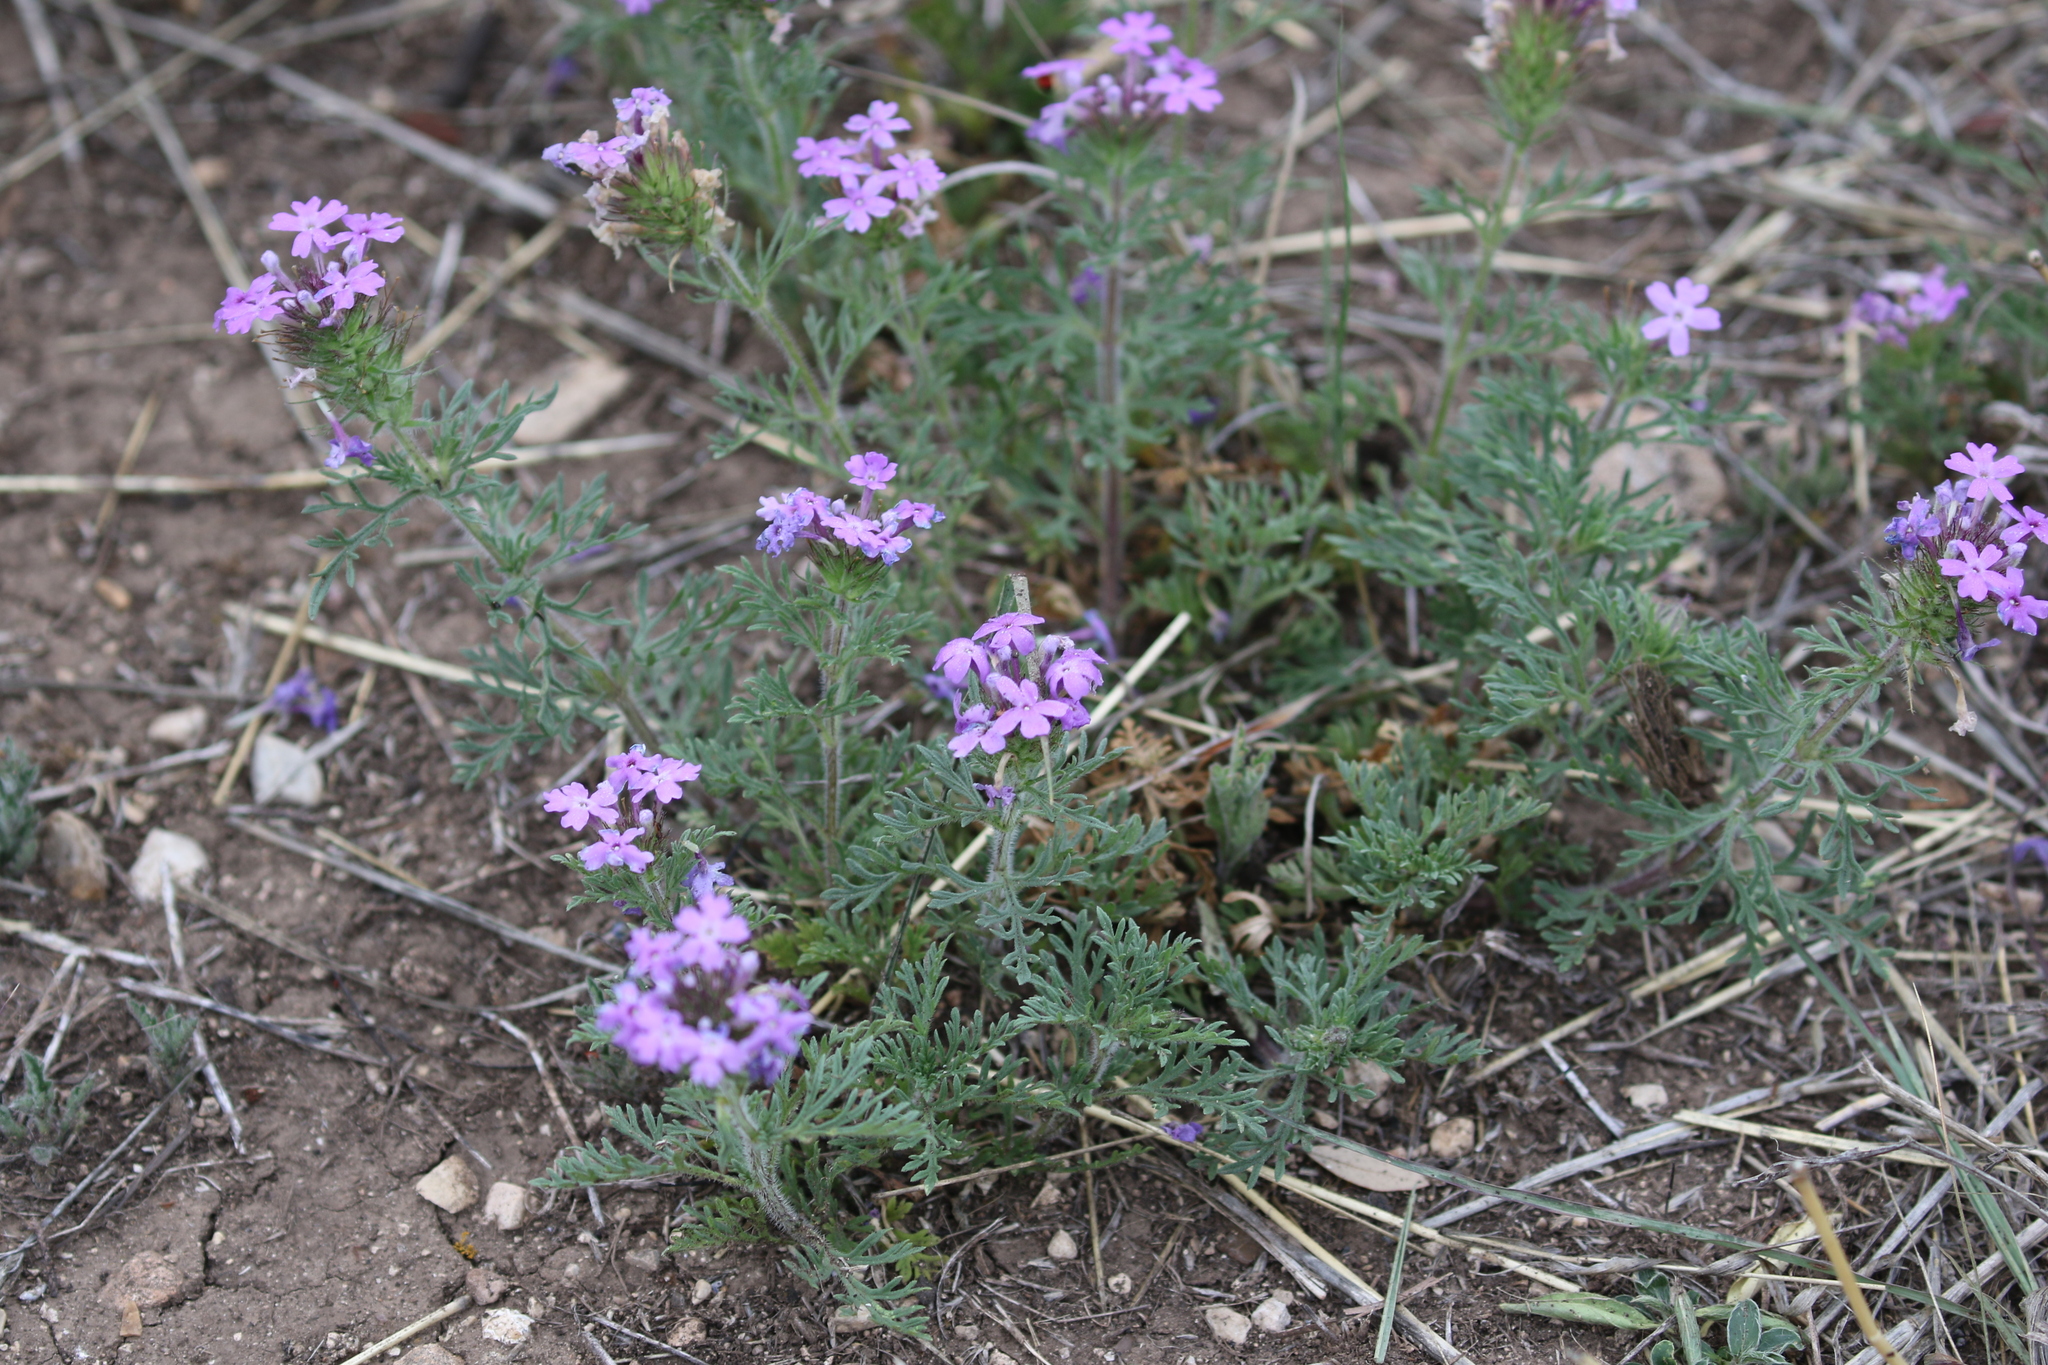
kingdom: Plantae
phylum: Tracheophyta
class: Magnoliopsida
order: Lamiales
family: Verbenaceae
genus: Verbena
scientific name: Verbena bipinnatifida
